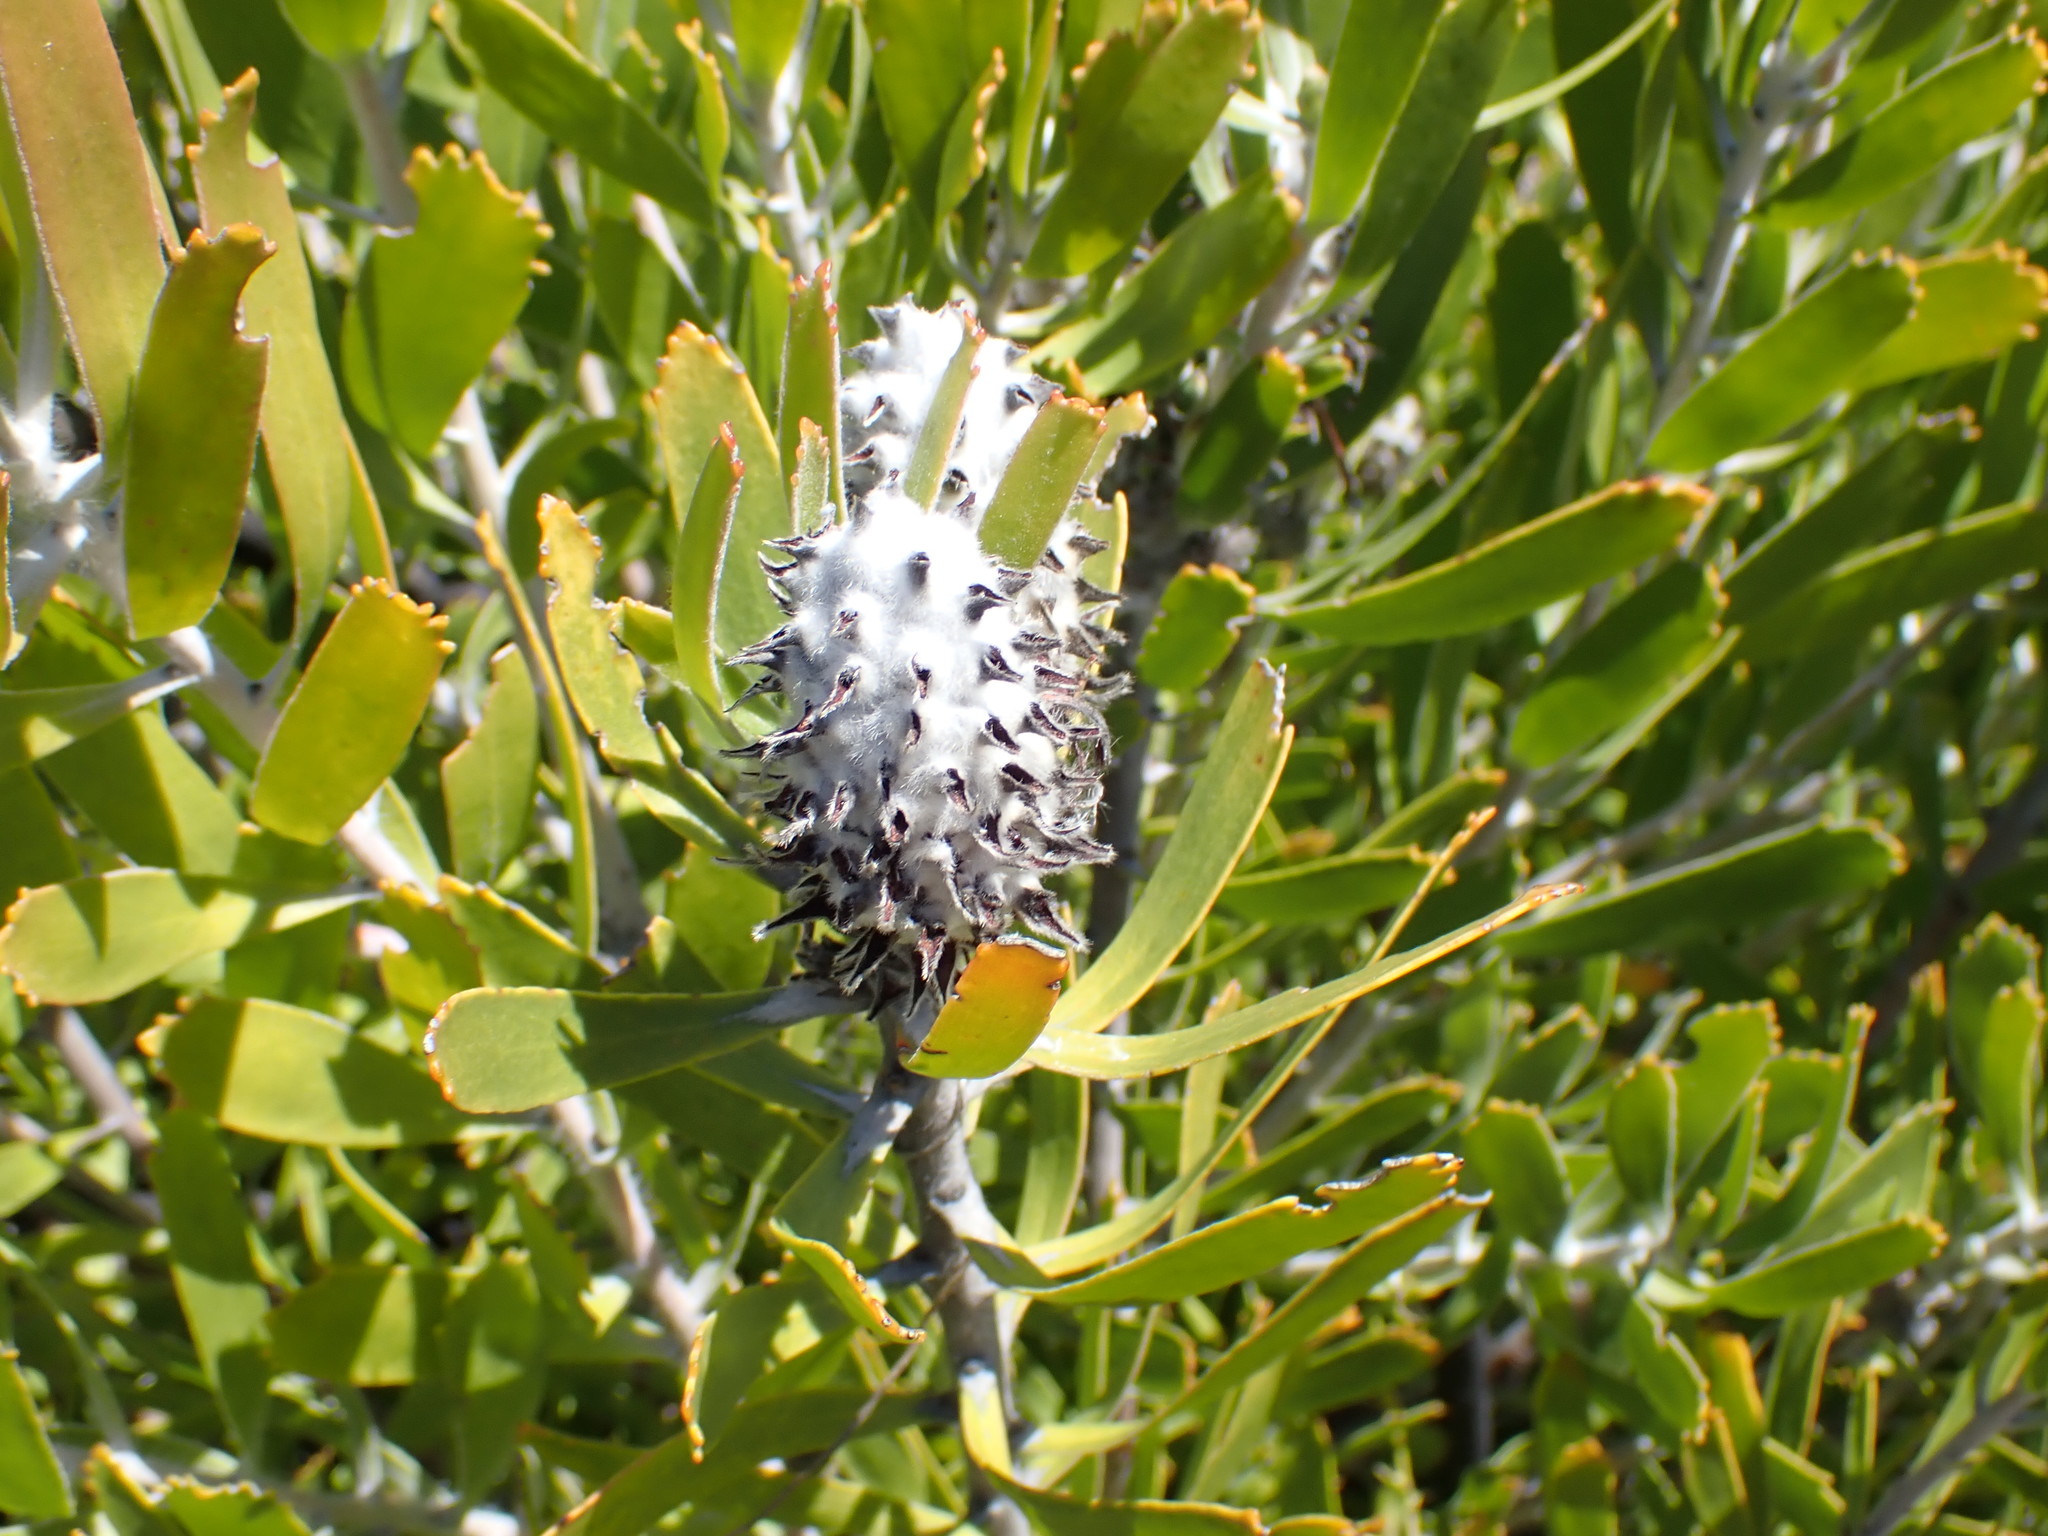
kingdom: Plantae
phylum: Tracheophyta
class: Magnoliopsida
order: Proteales
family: Proteaceae
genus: Leucospermum
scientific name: Leucospermum cuneiforme
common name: Common pincushion
